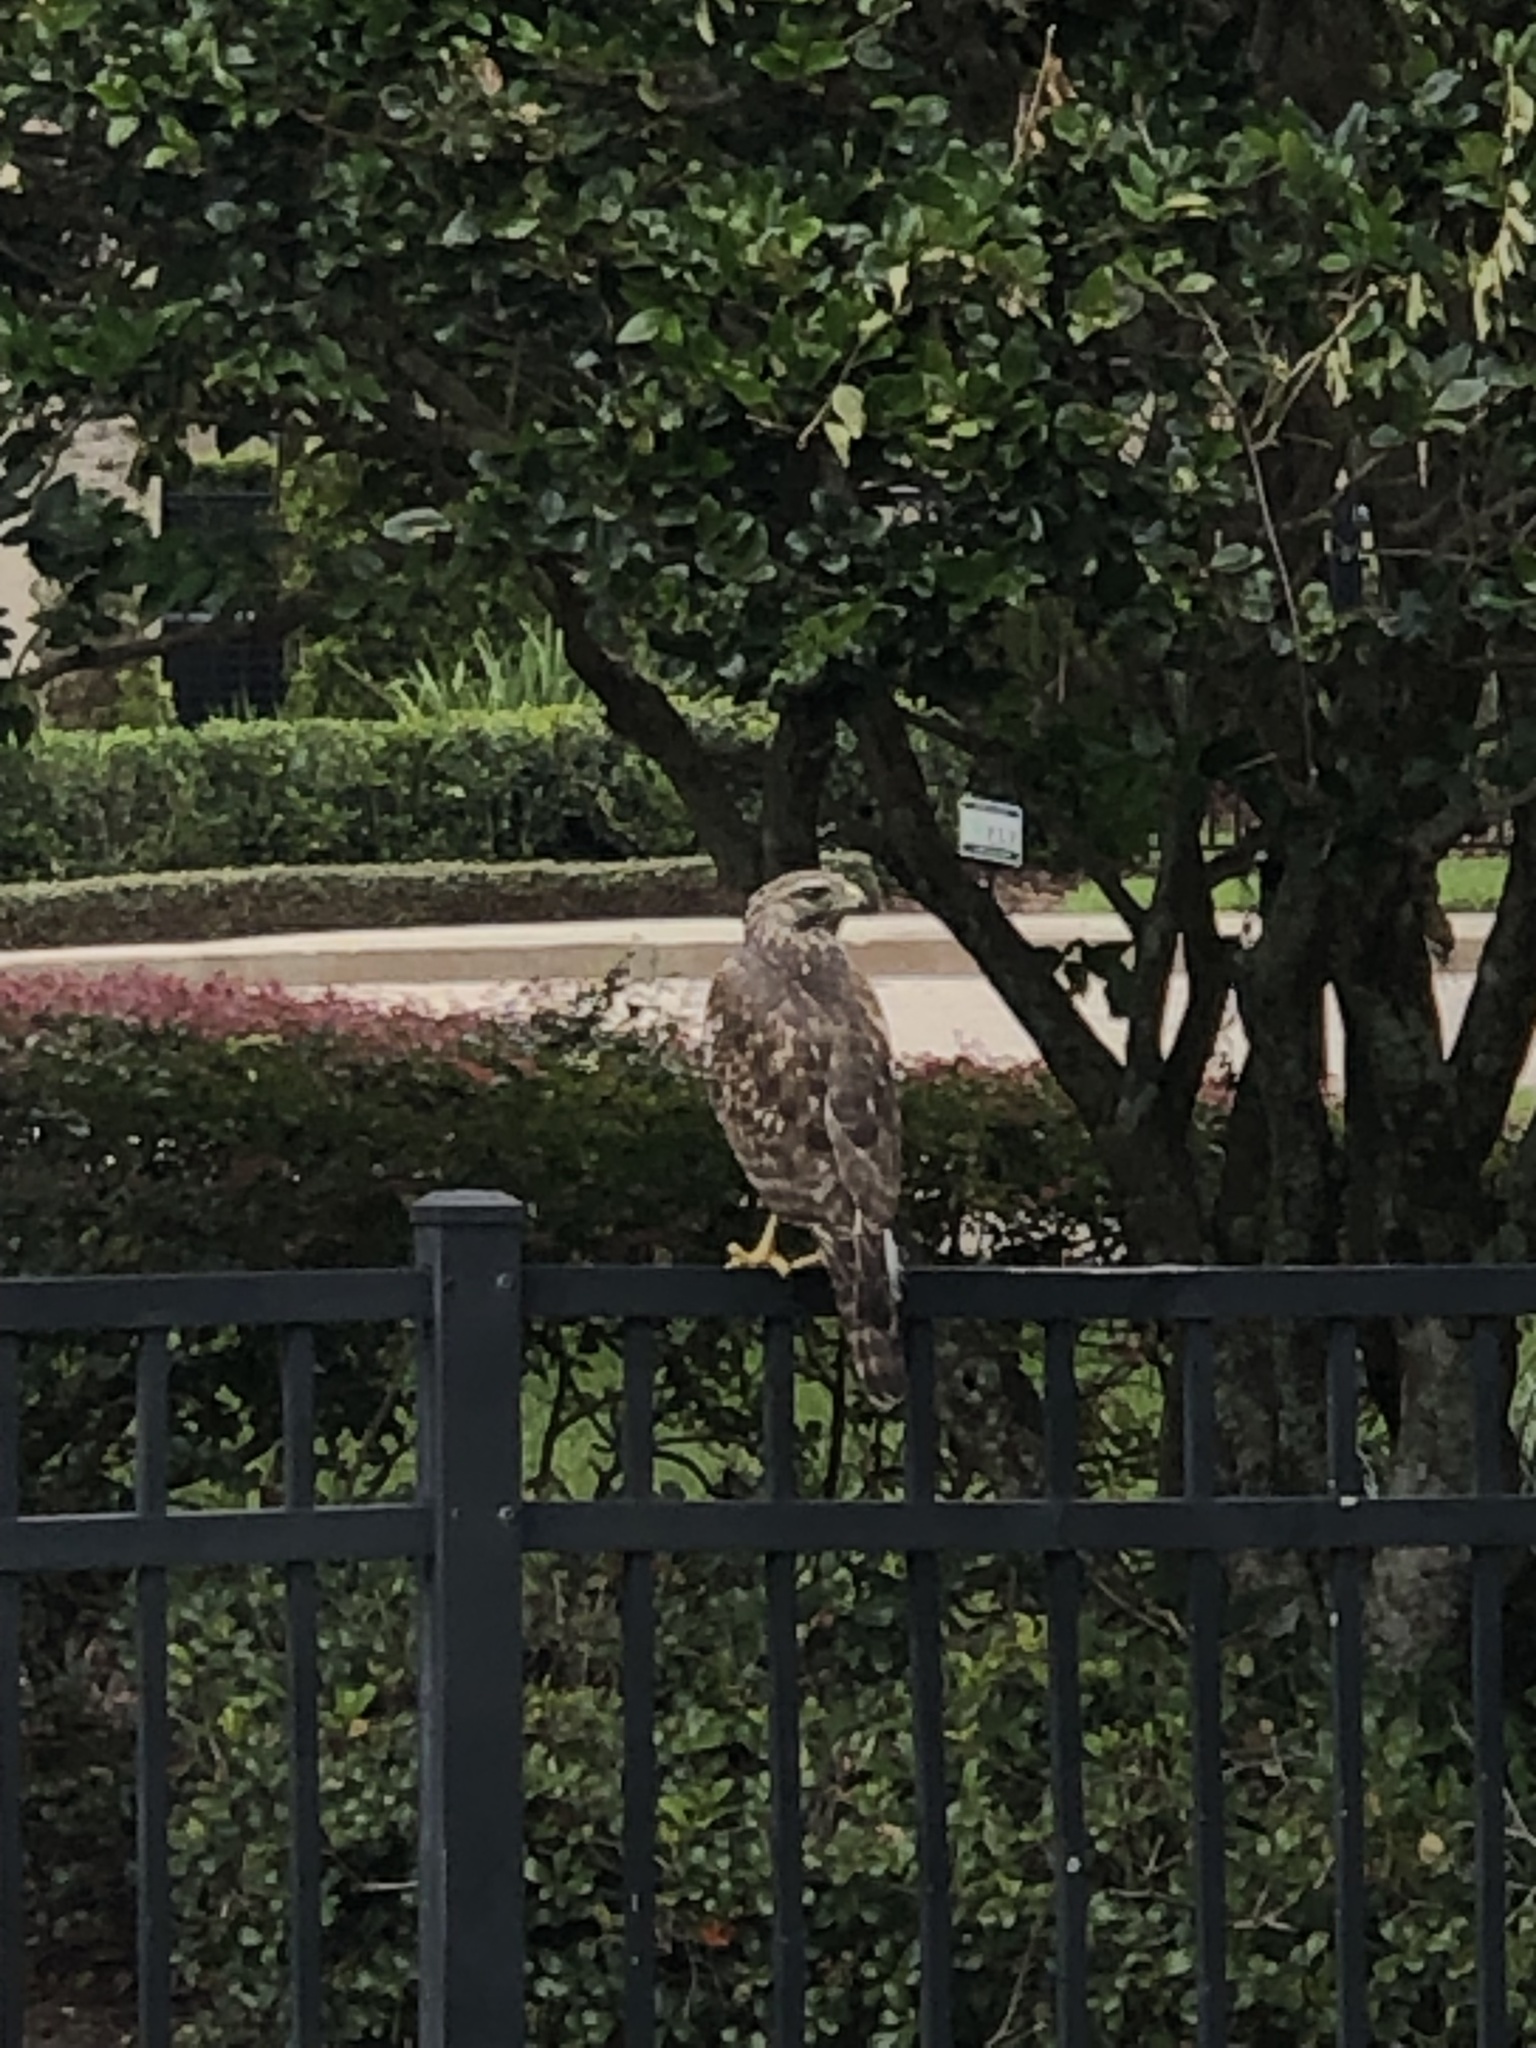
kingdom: Animalia
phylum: Chordata
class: Aves
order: Accipitriformes
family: Accipitridae
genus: Buteo
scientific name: Buteo lineatus
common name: Red-shouldered hawk
